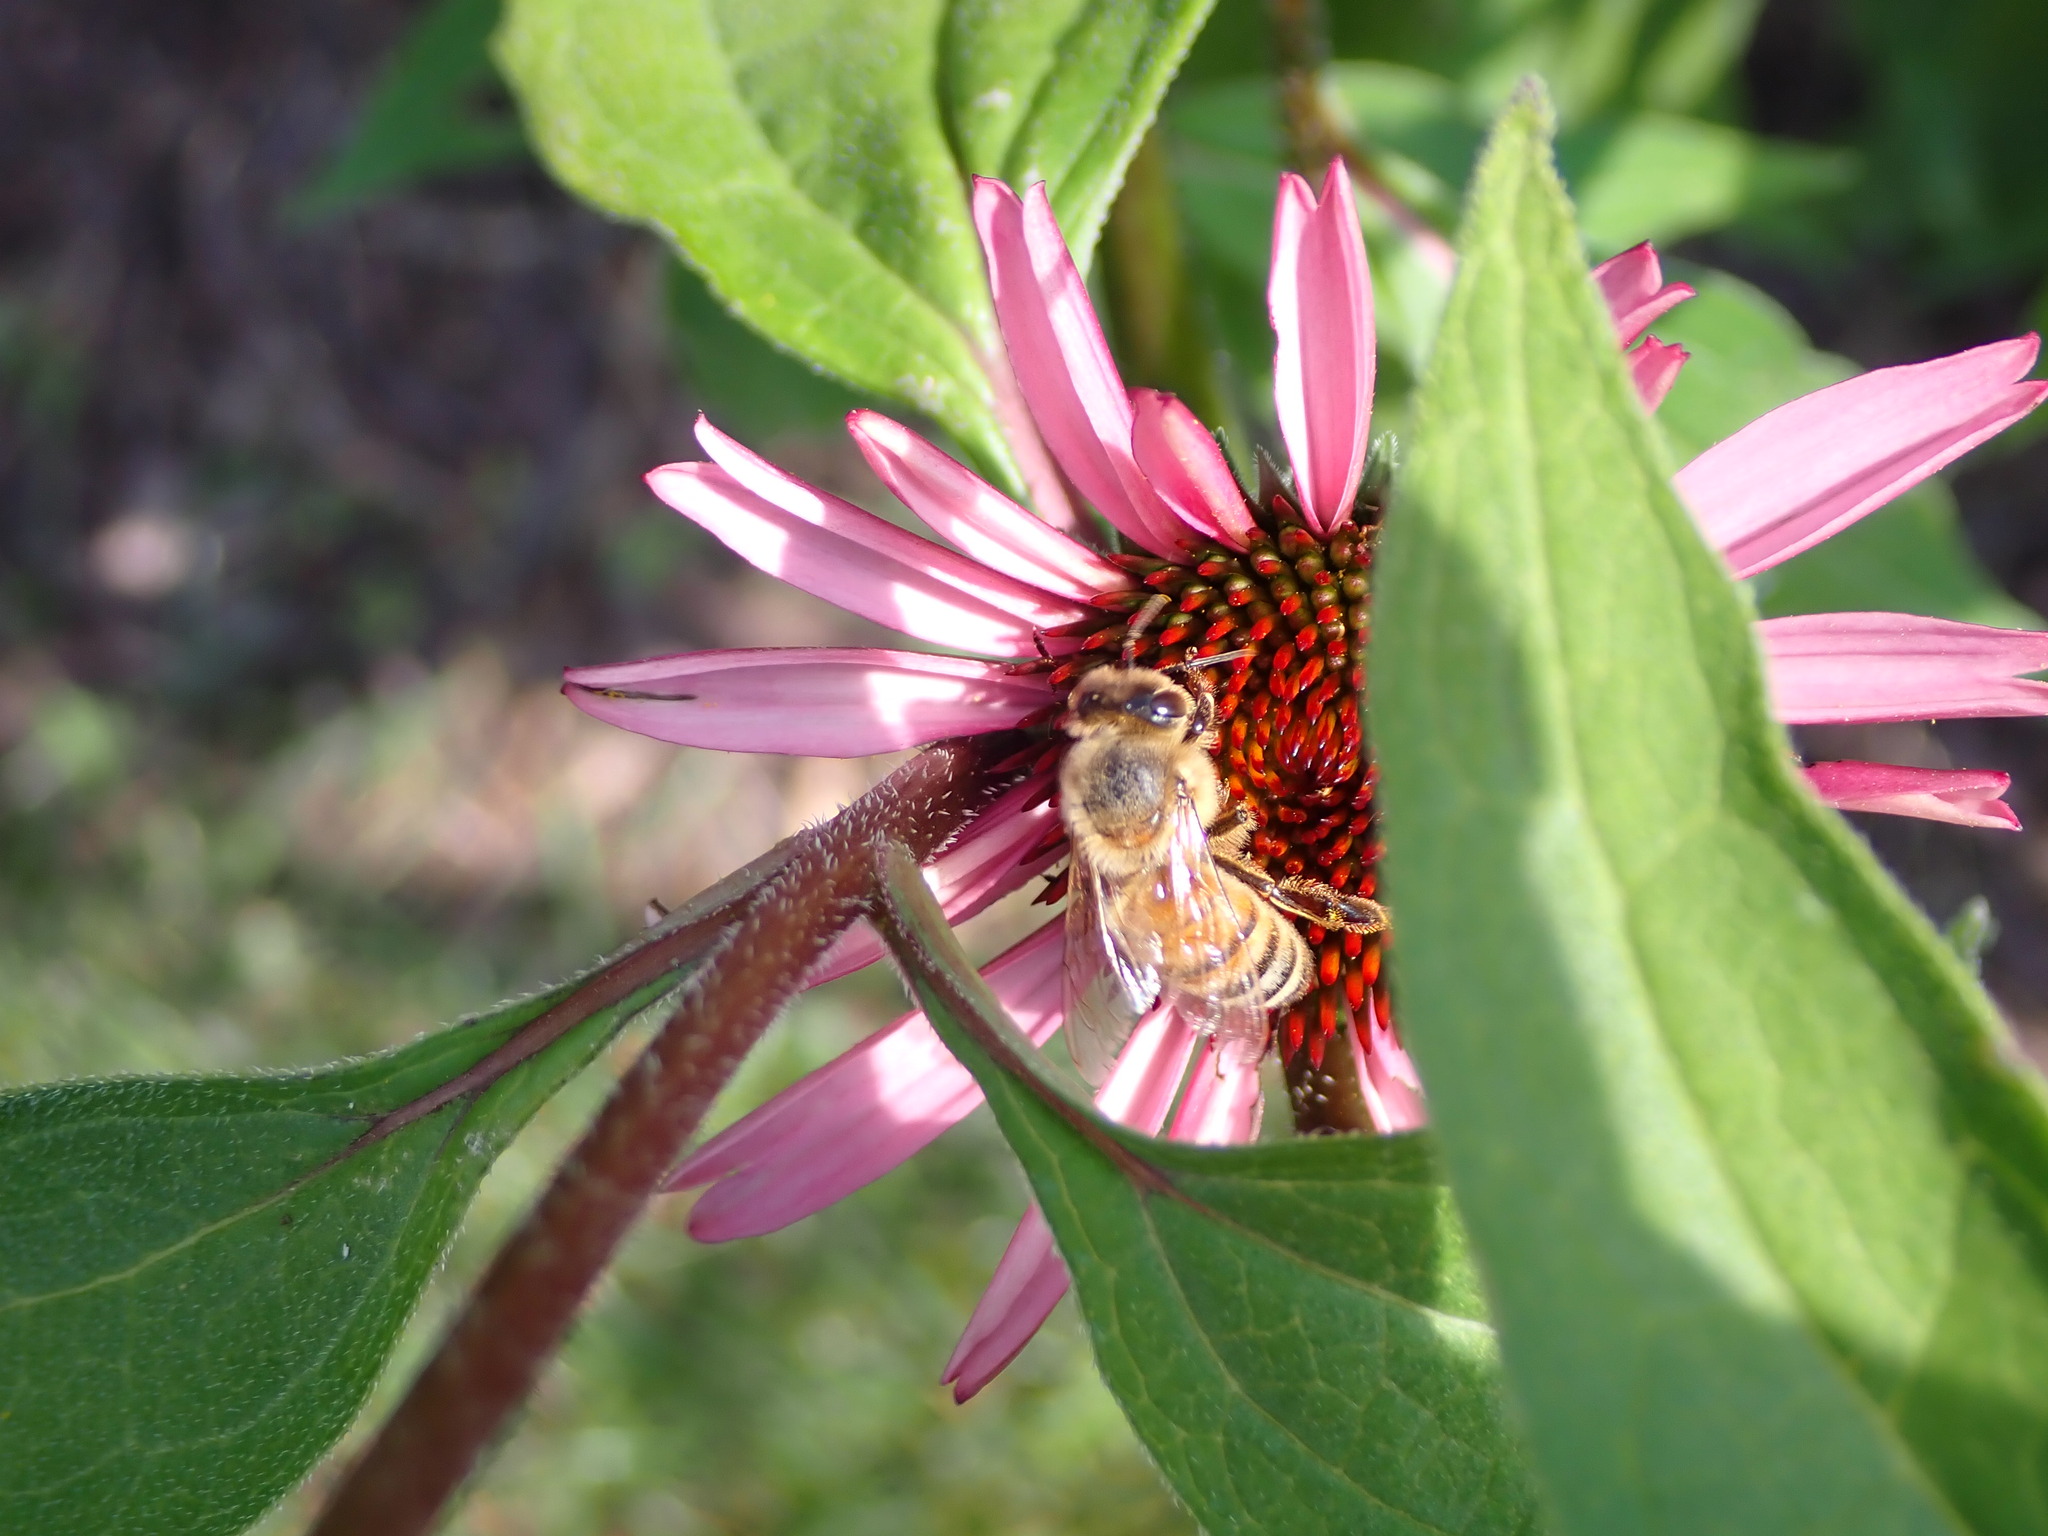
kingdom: Animalia
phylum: Arthropoda
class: Insecta
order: Hymenoptera
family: Apidae
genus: Apis
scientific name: Apis mellifera
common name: Honey bee
